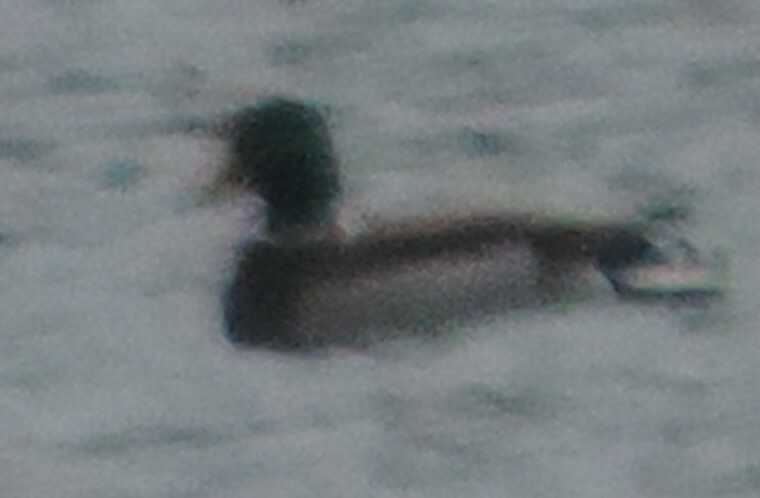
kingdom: Animalia
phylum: Chordata
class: Aves
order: Anseriformes
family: Anatidae
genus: Anas
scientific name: Anas platyrhynchos
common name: Mallard
